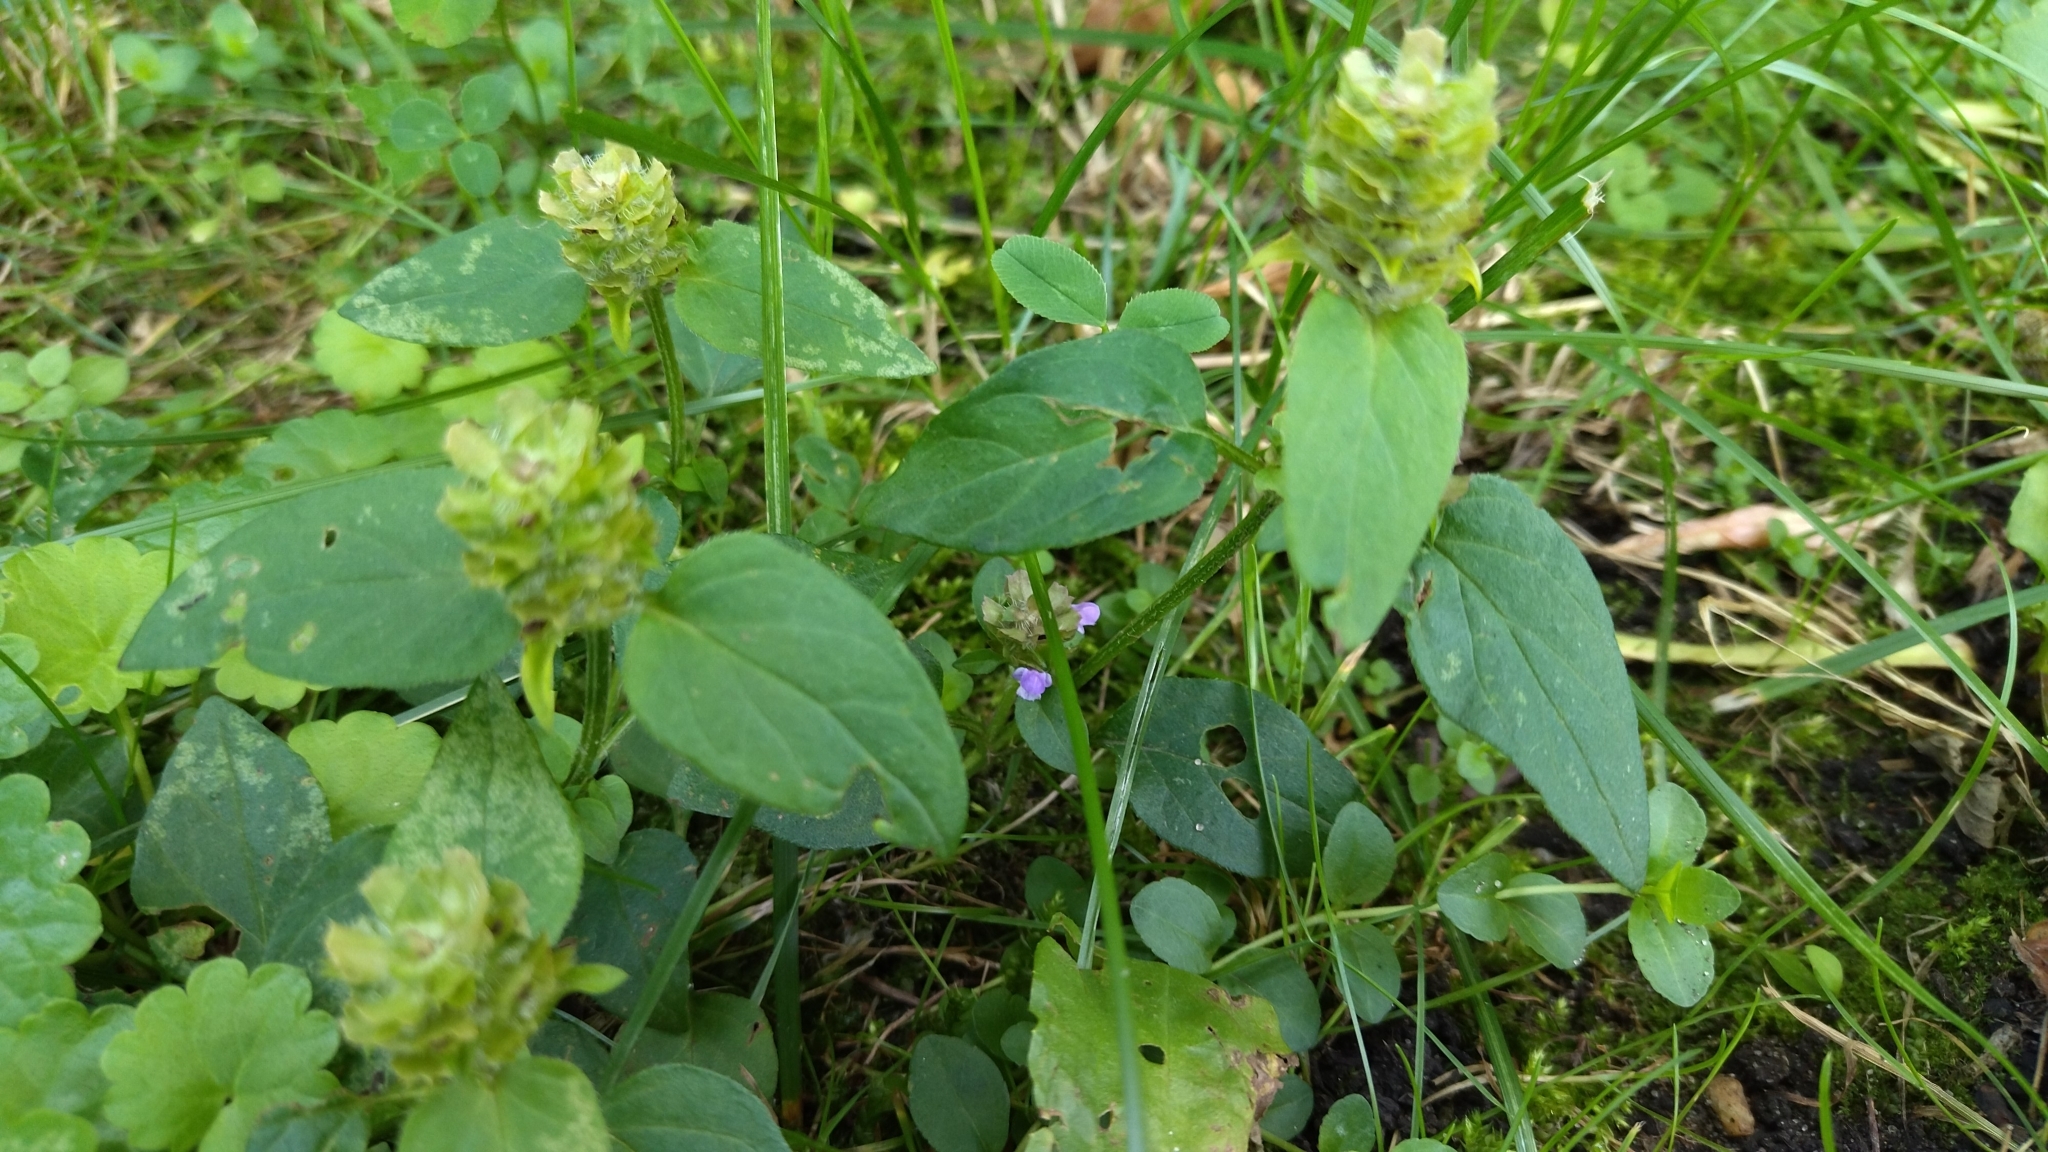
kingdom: Plantae
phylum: Tracheophyta
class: Magnoliopsida
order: Lamiales
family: Lamiaceae
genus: Prunella
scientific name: Prunella vulgaris
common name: Heal-all
